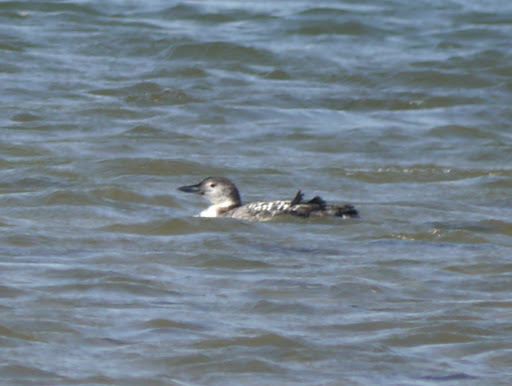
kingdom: Animalia
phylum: Chordata
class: Aves
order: Gaviiformes
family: Gaviidae
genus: Gavia
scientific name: Gavia immer
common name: Common loon
